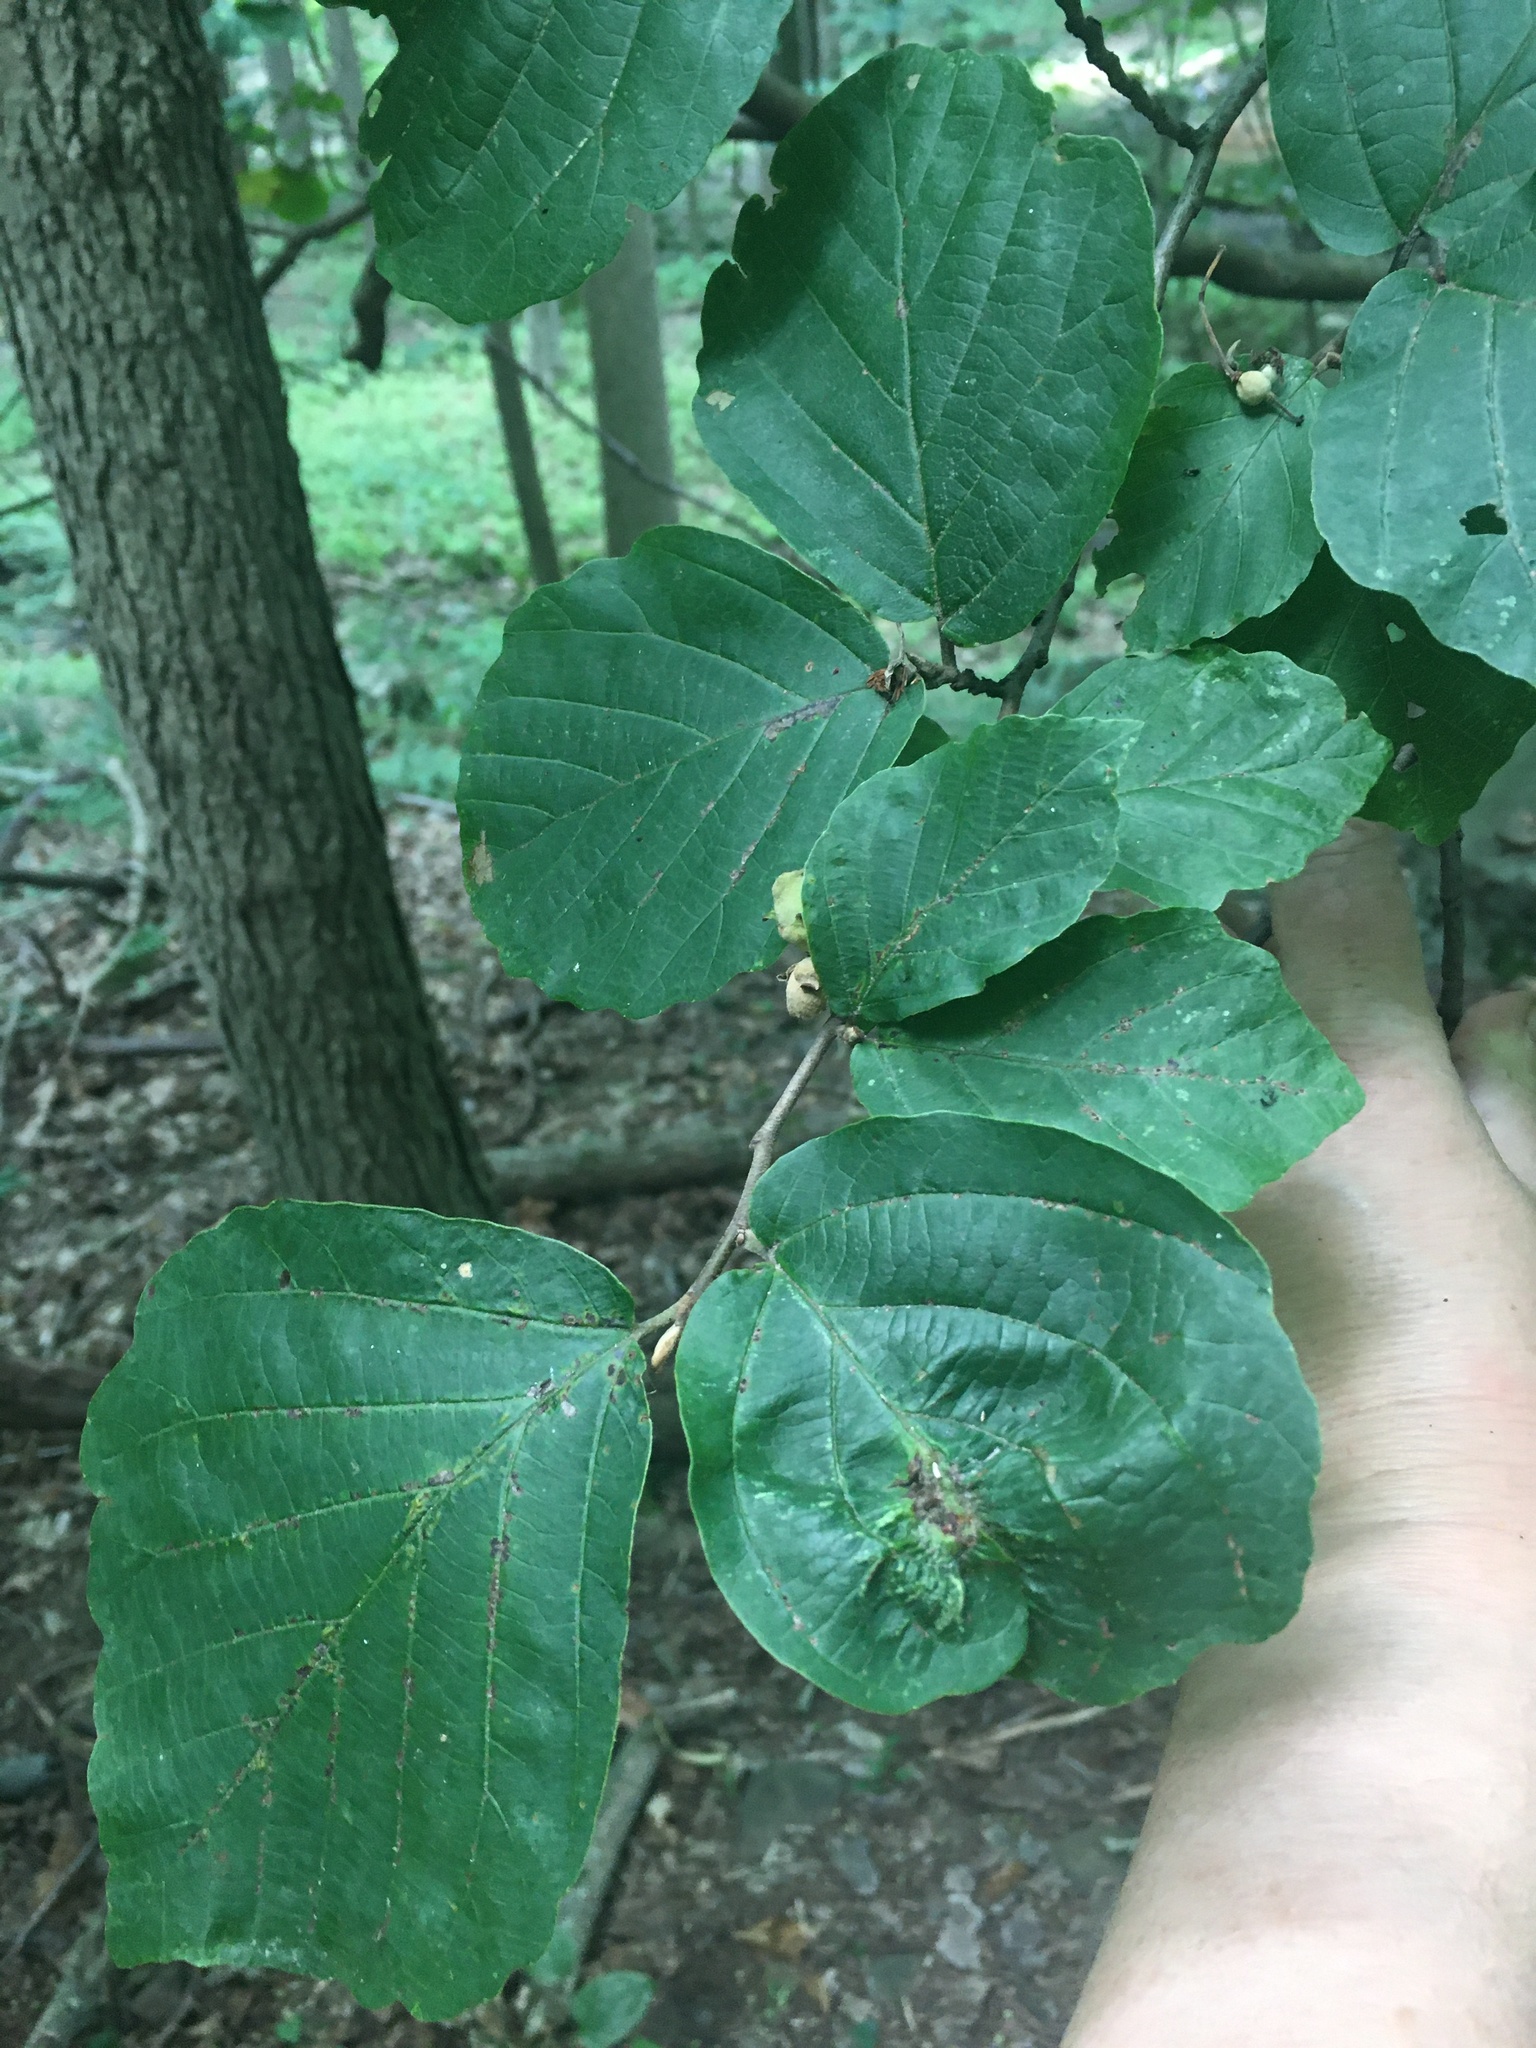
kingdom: Plantae
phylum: Tracheophyta
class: Magnoliopsida
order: Saxifragales
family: Hamamelidaceae
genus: Hamamelis
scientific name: Hamamelis virginiana
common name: Witch-hazel
